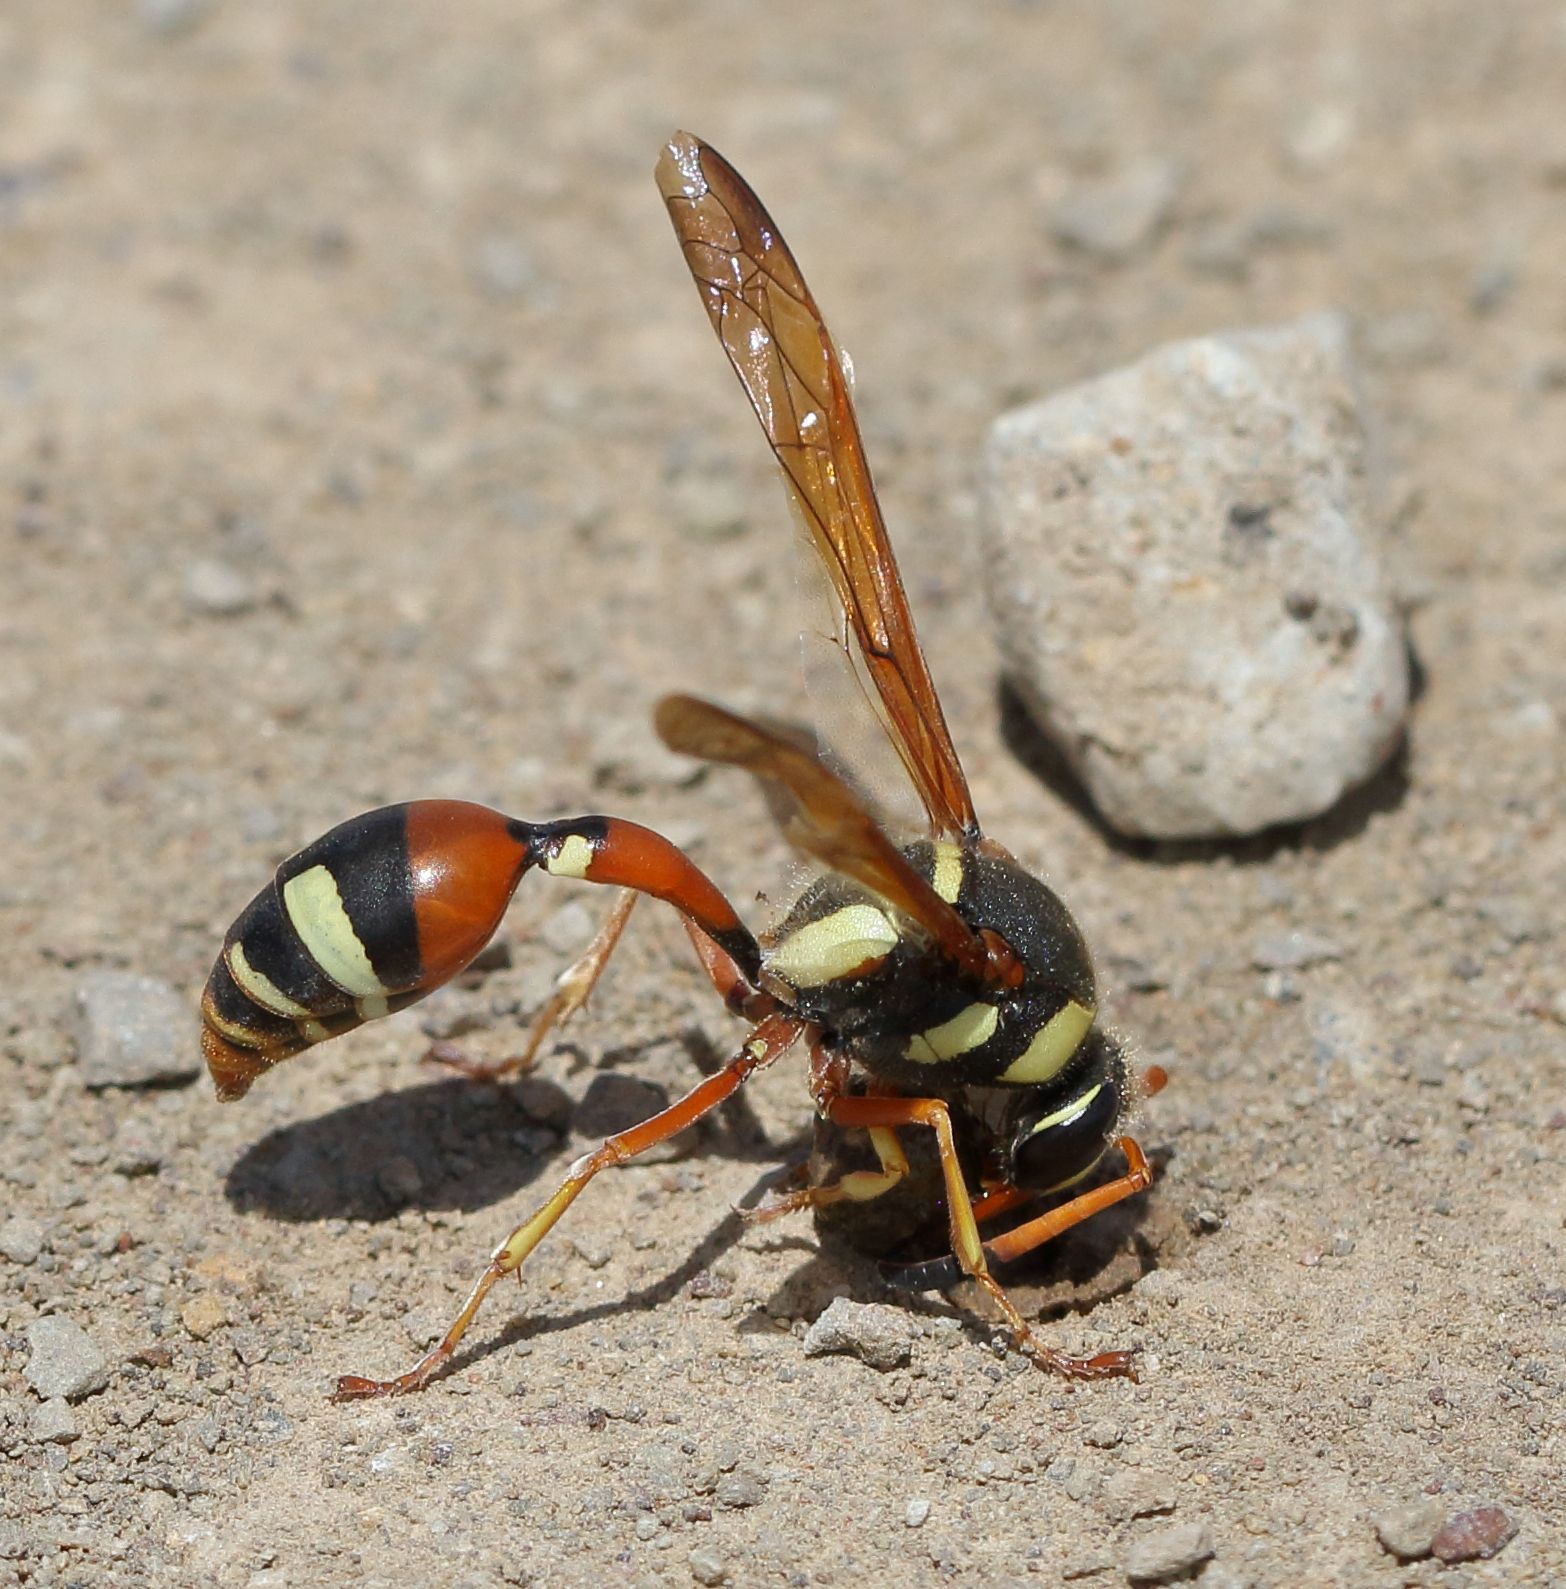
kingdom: Animalia
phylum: Arthropoda
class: Insecta
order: Hymenoptera
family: Eumenidae
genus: Delta
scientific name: Delta pulcherrimum
